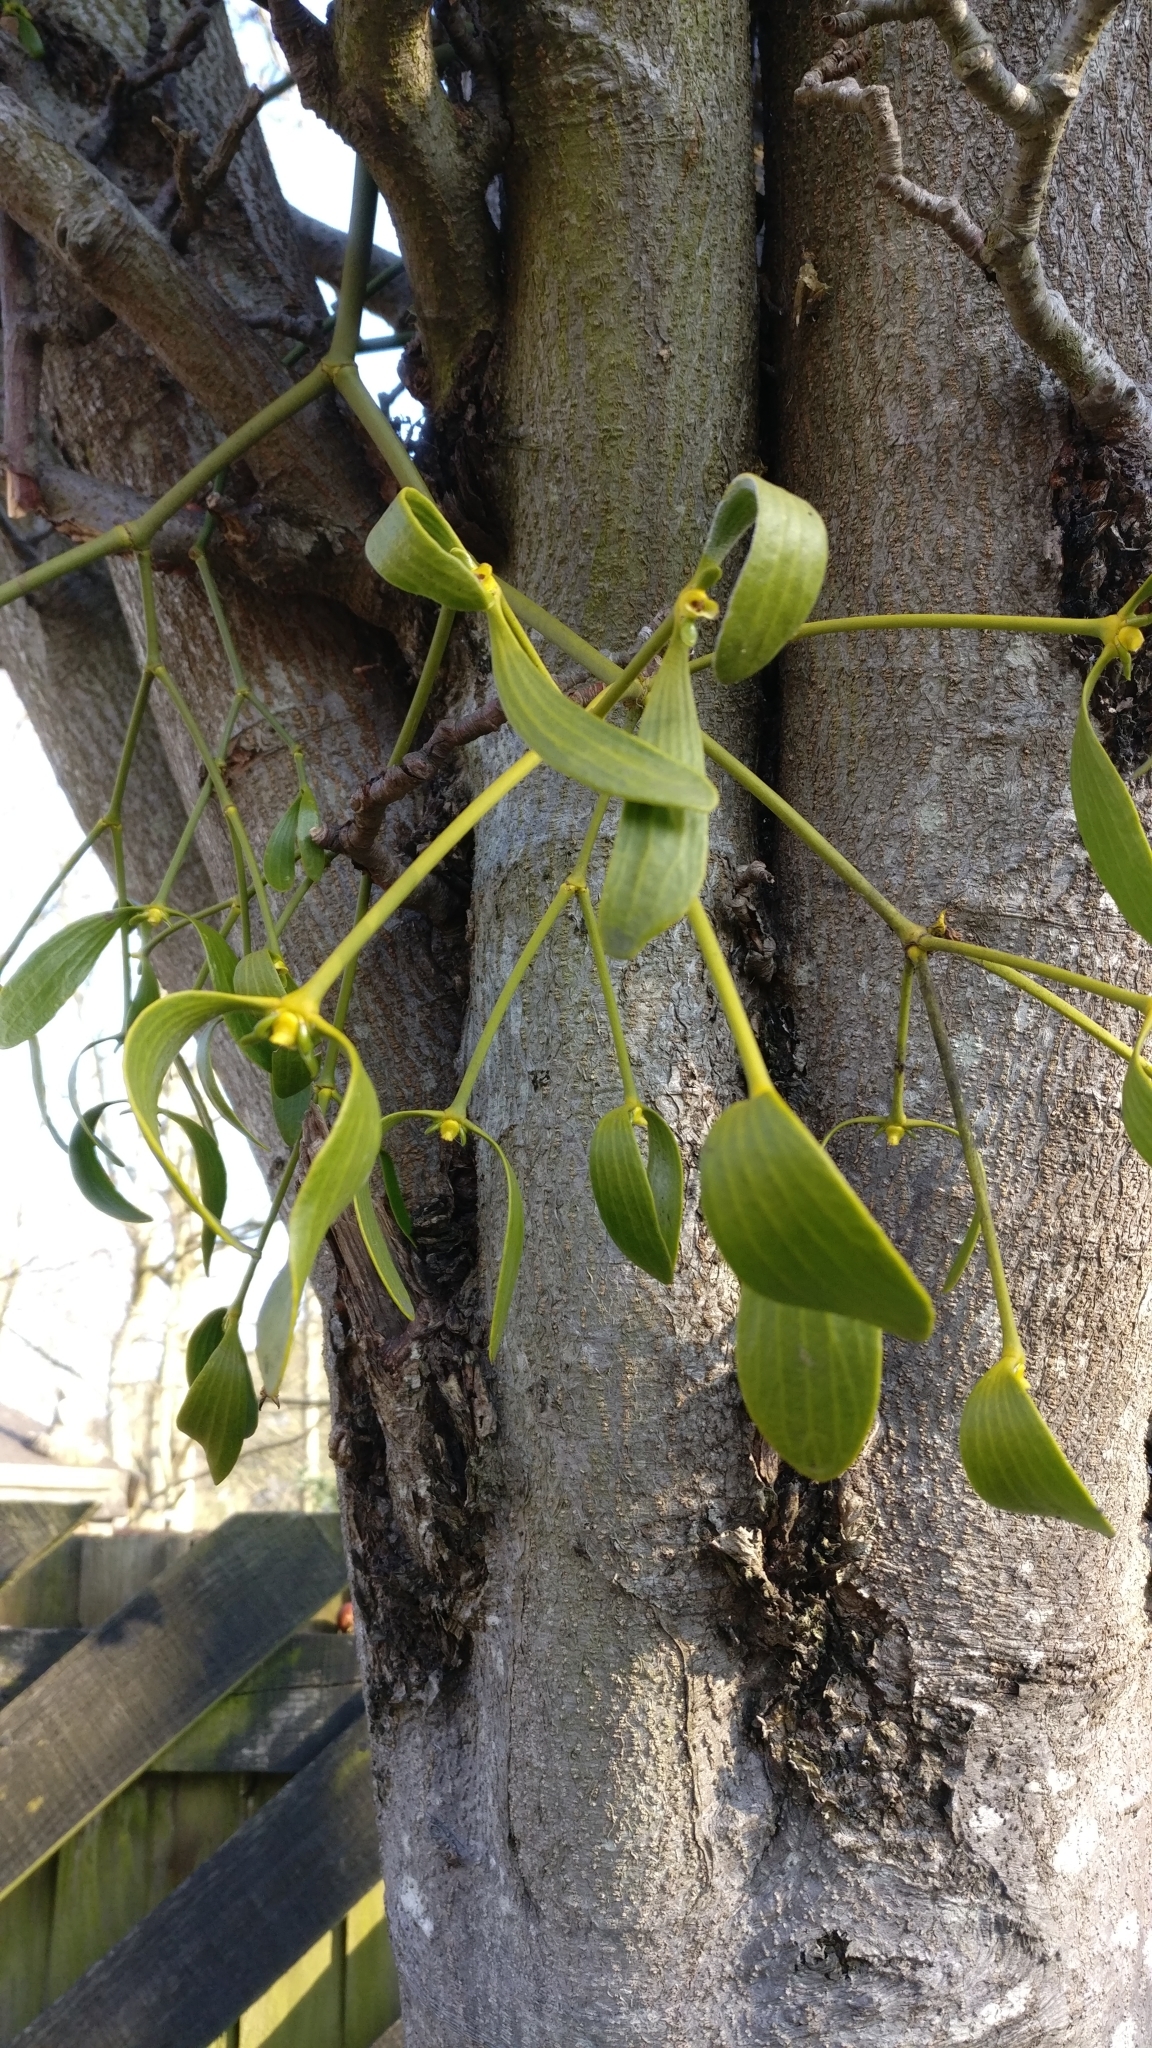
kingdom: Plantae
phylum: Tracheophyta
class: Magnoliopsida
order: Santalales
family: Viscaceae
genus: Viscum
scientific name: Viscum album
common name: Mistletoe
